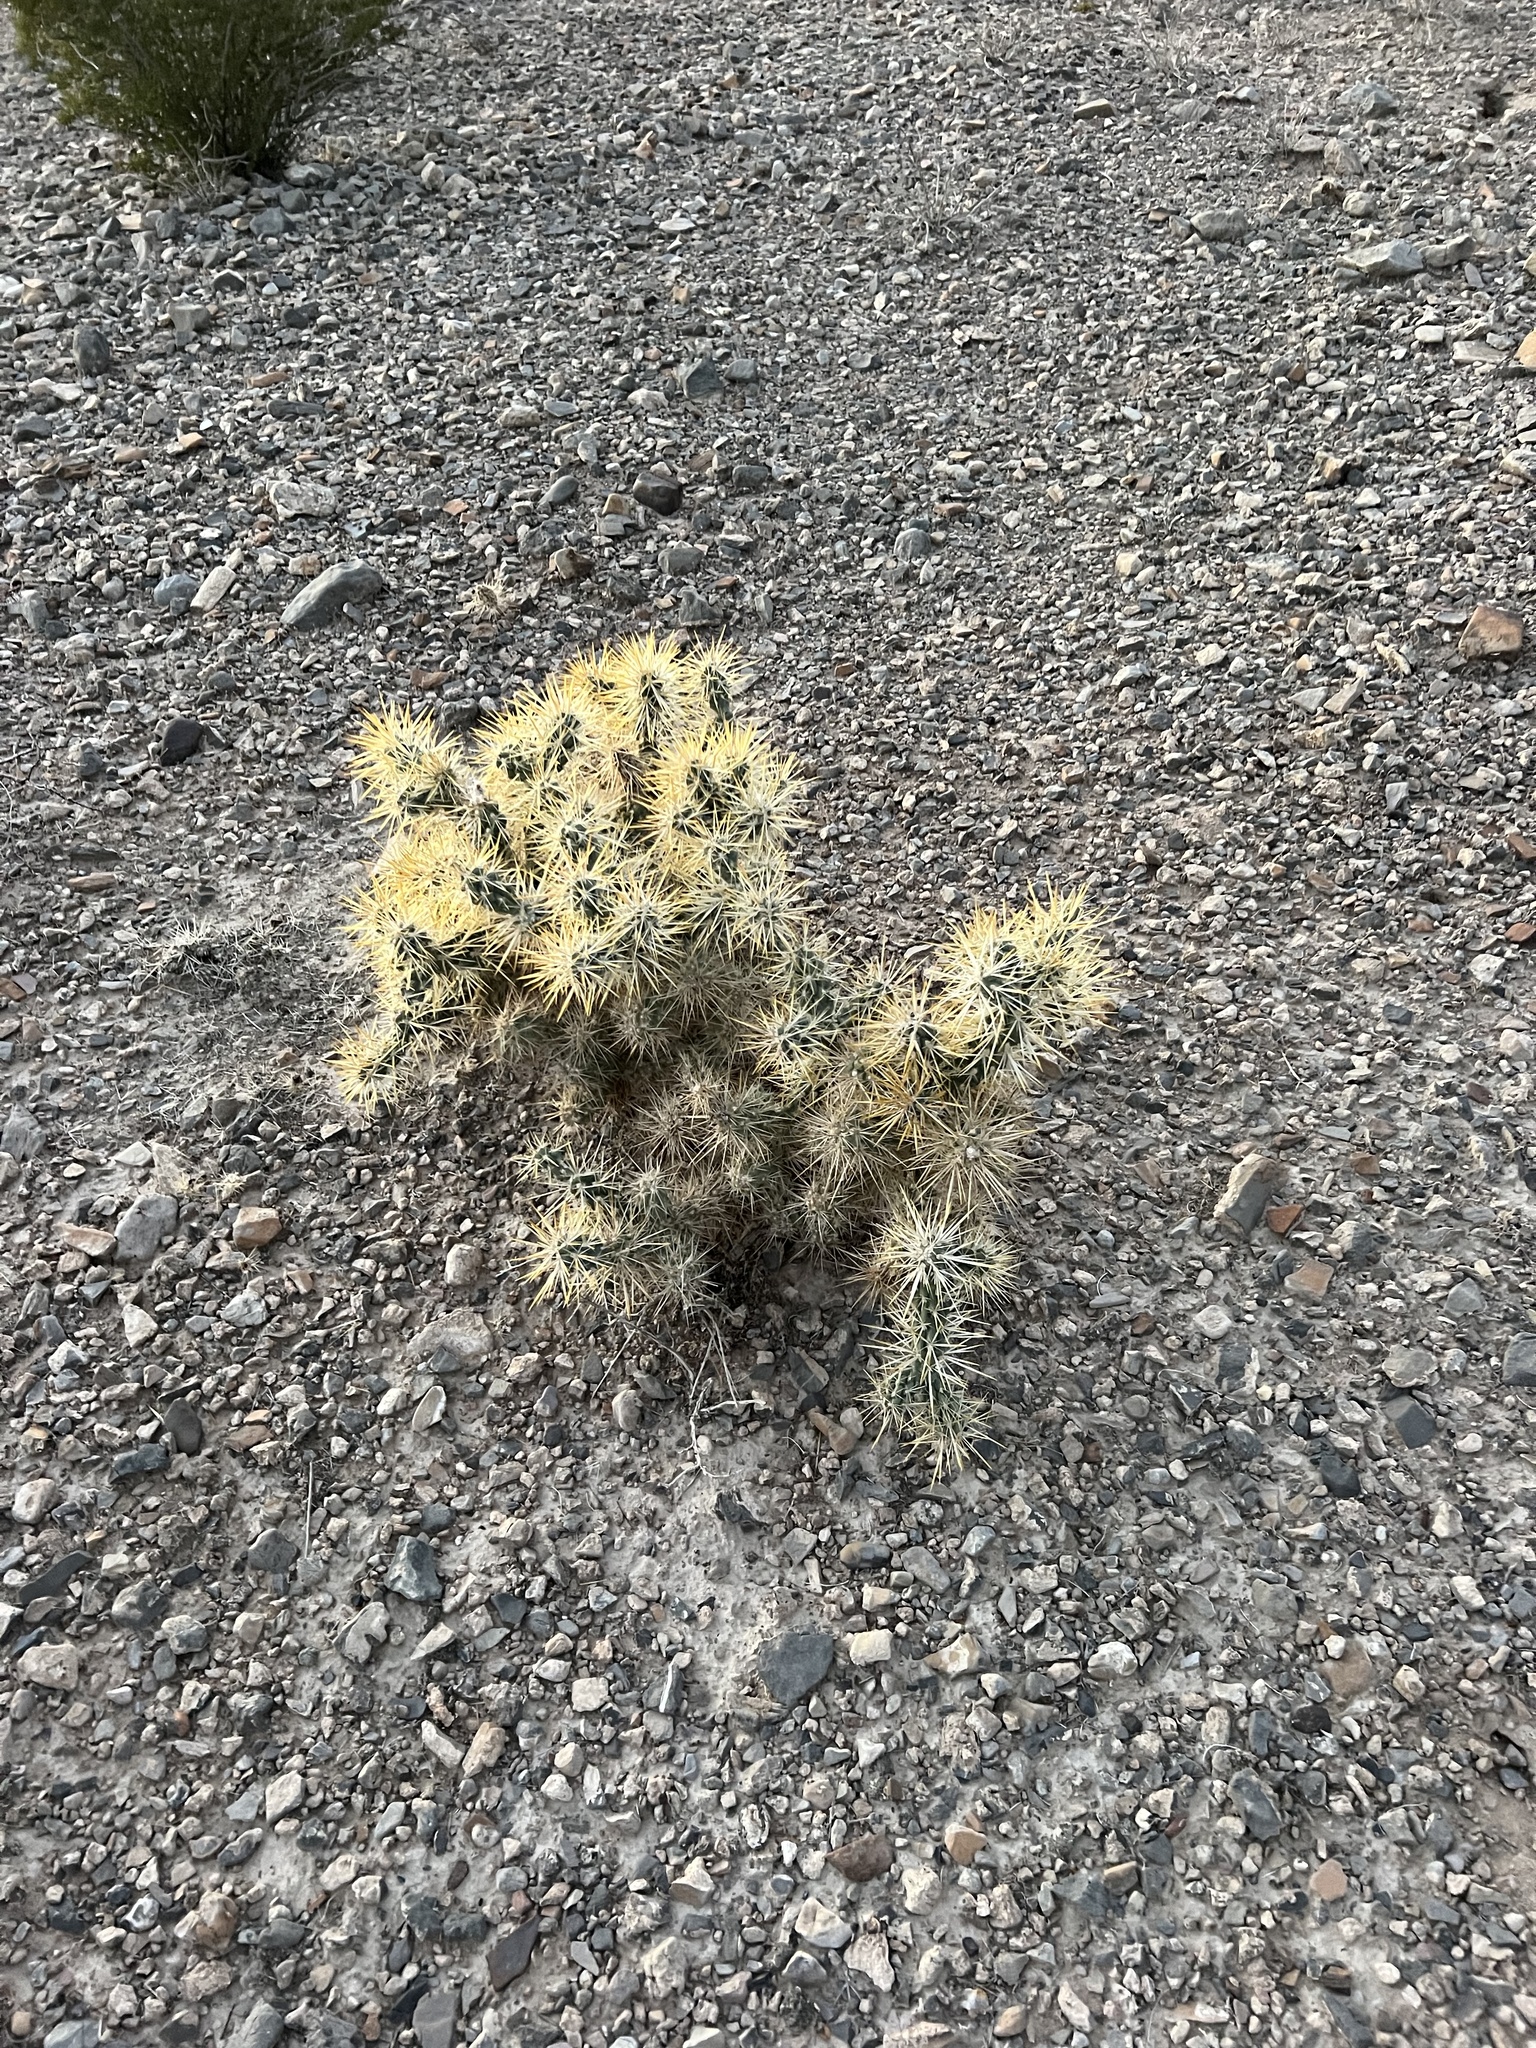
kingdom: Plantae
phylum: Tracheophyta
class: Magnoliopsida
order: Caryophyllales
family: Cactaceae
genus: Cylindropuntia
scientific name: Cylindropuntia echinocarpa
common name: Ground cholla
